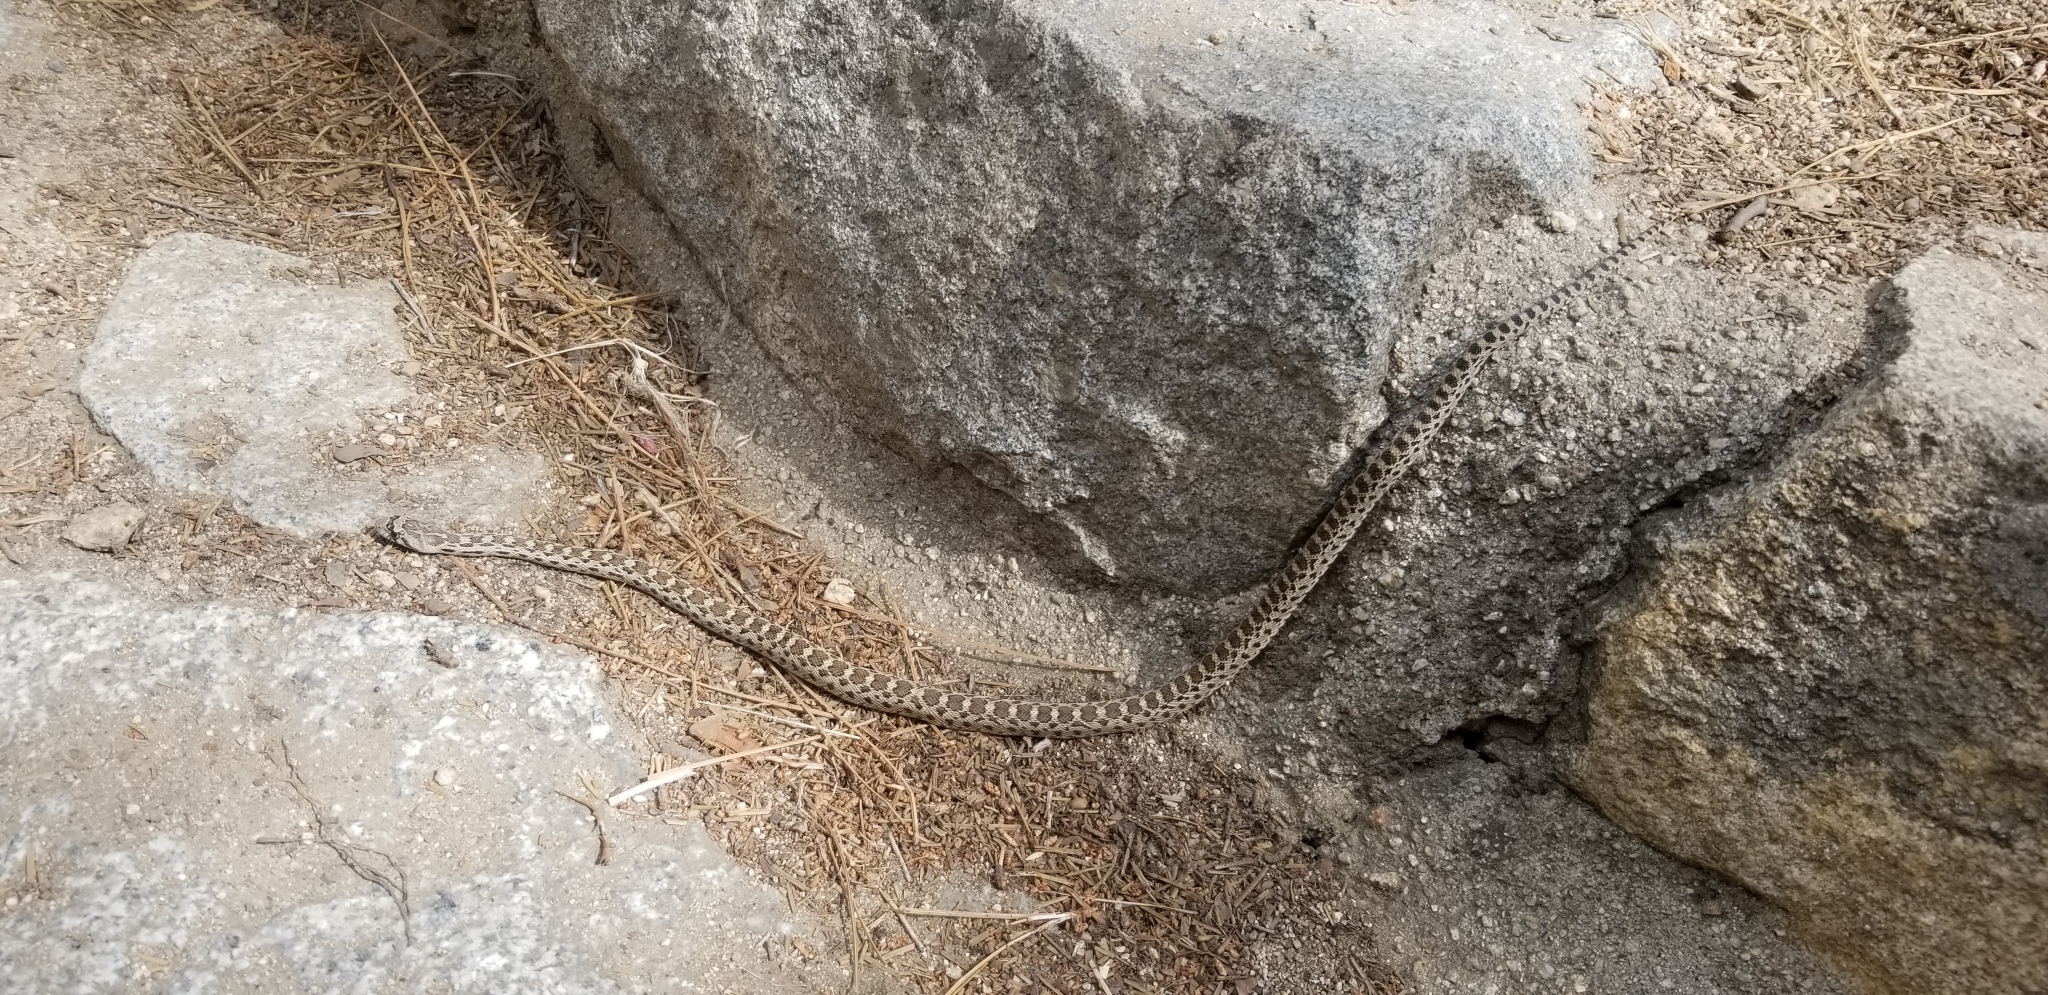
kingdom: Animalia
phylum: Chordata
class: Squamata
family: Colubridae
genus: Pituophis
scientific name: Pituophis catenifer
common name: Gopher snake
